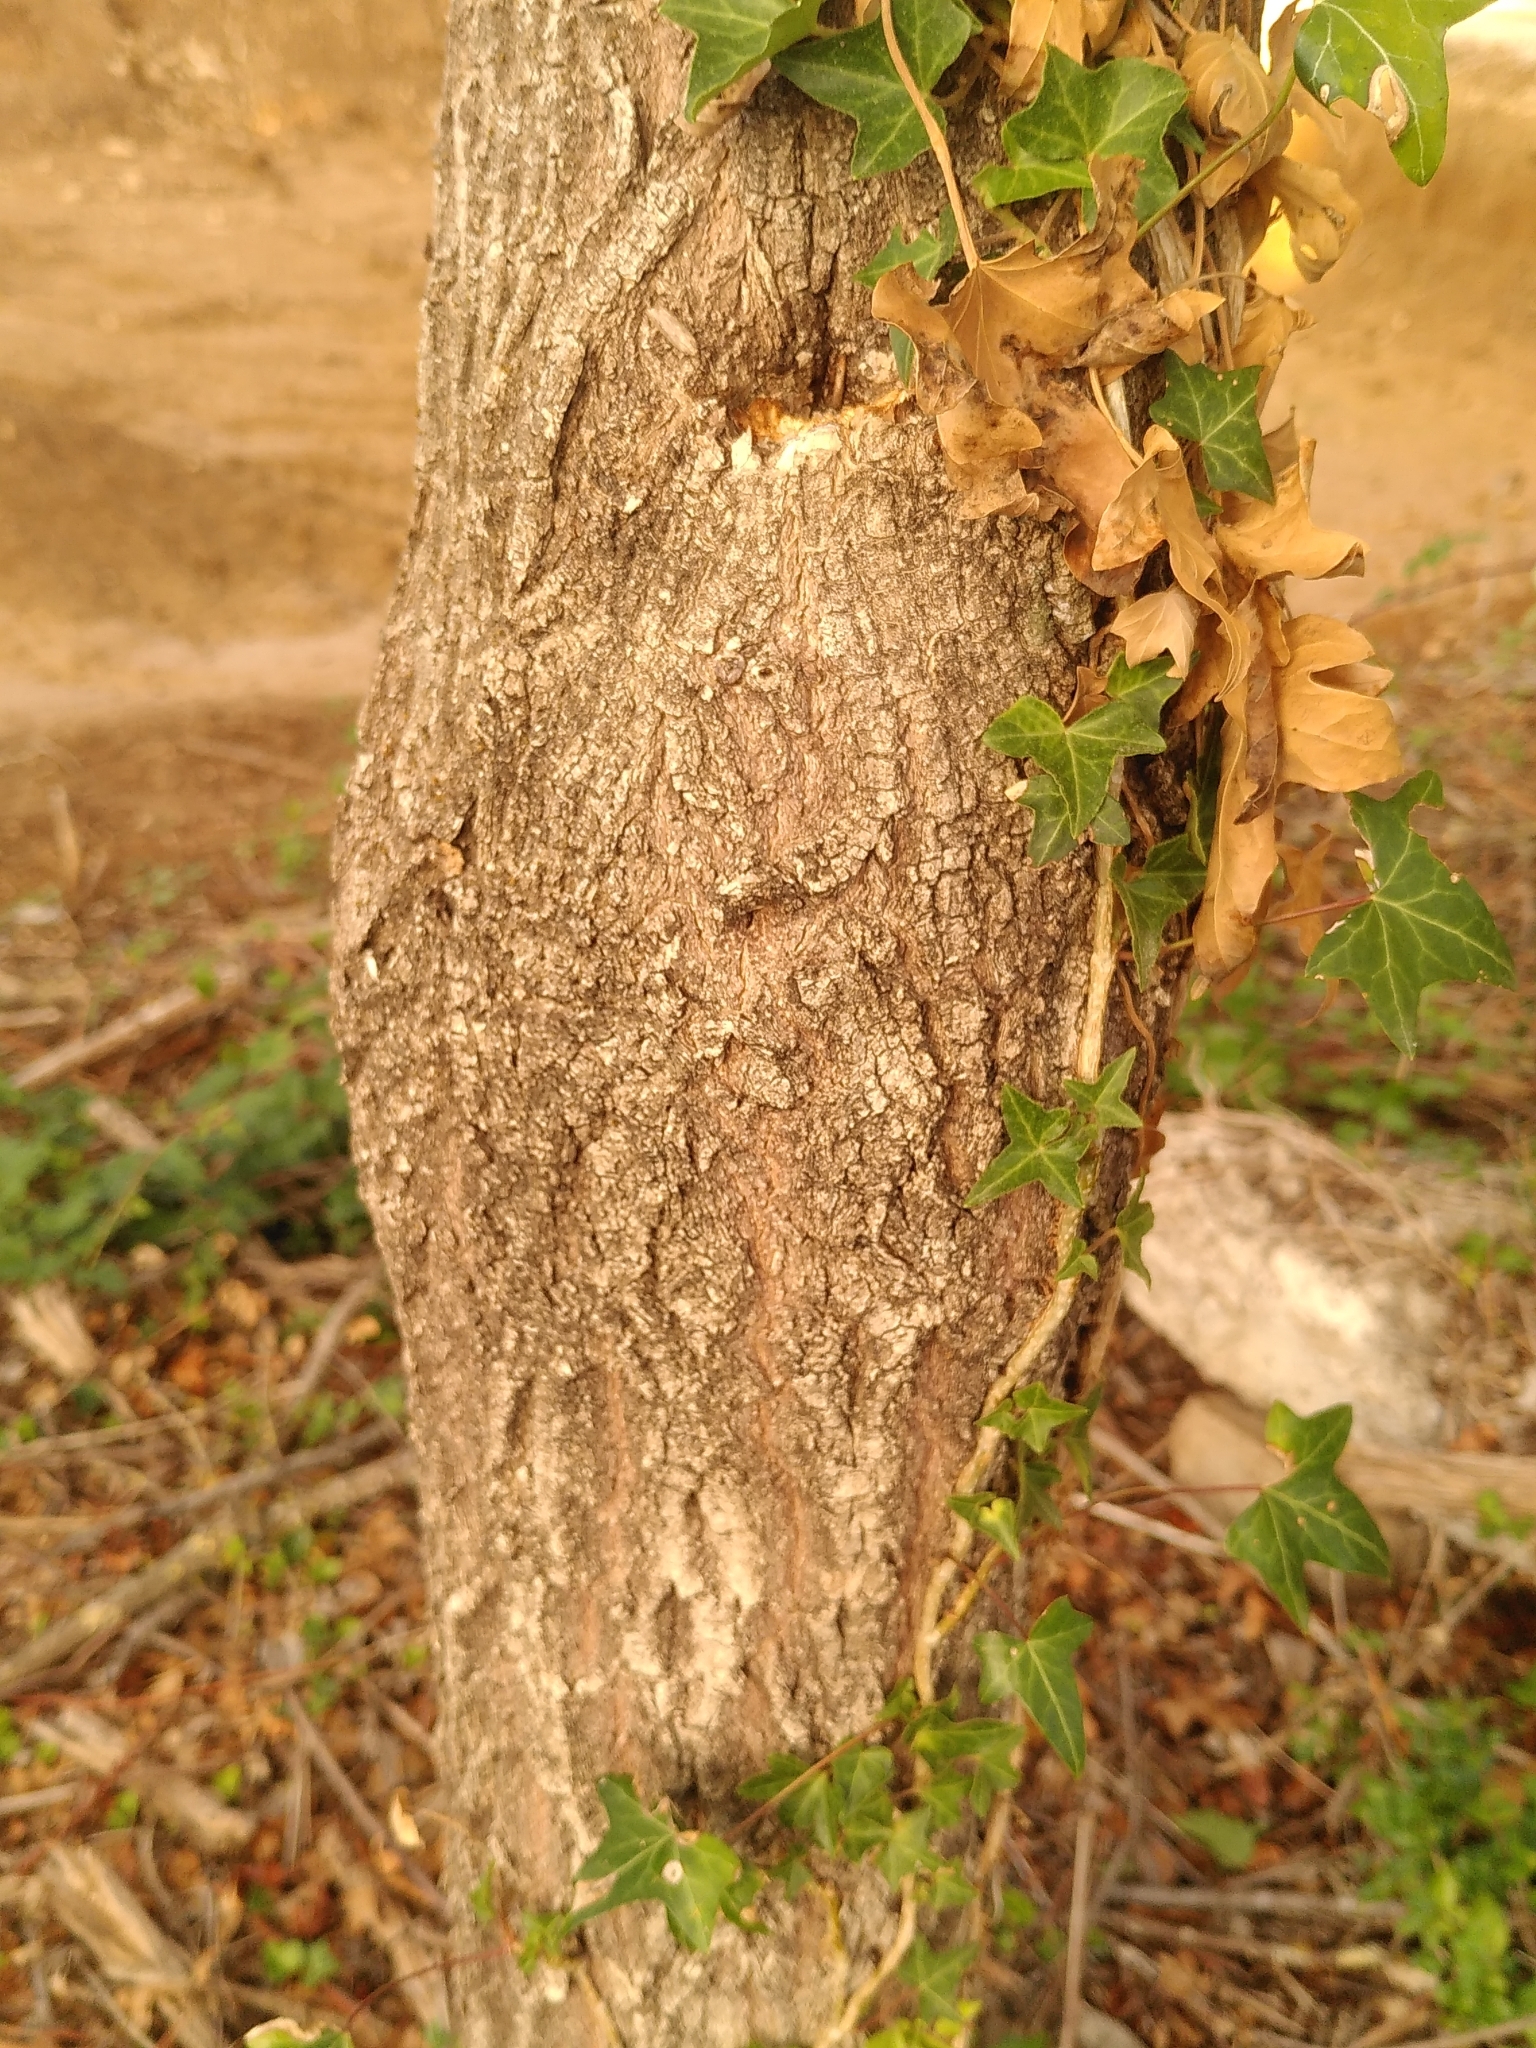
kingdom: Plantae
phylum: Tracheophyta
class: Magnoliopsida
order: Celastrales
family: Celastraceae
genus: Euonymus
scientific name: Euonymus europaeus
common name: Spindle
